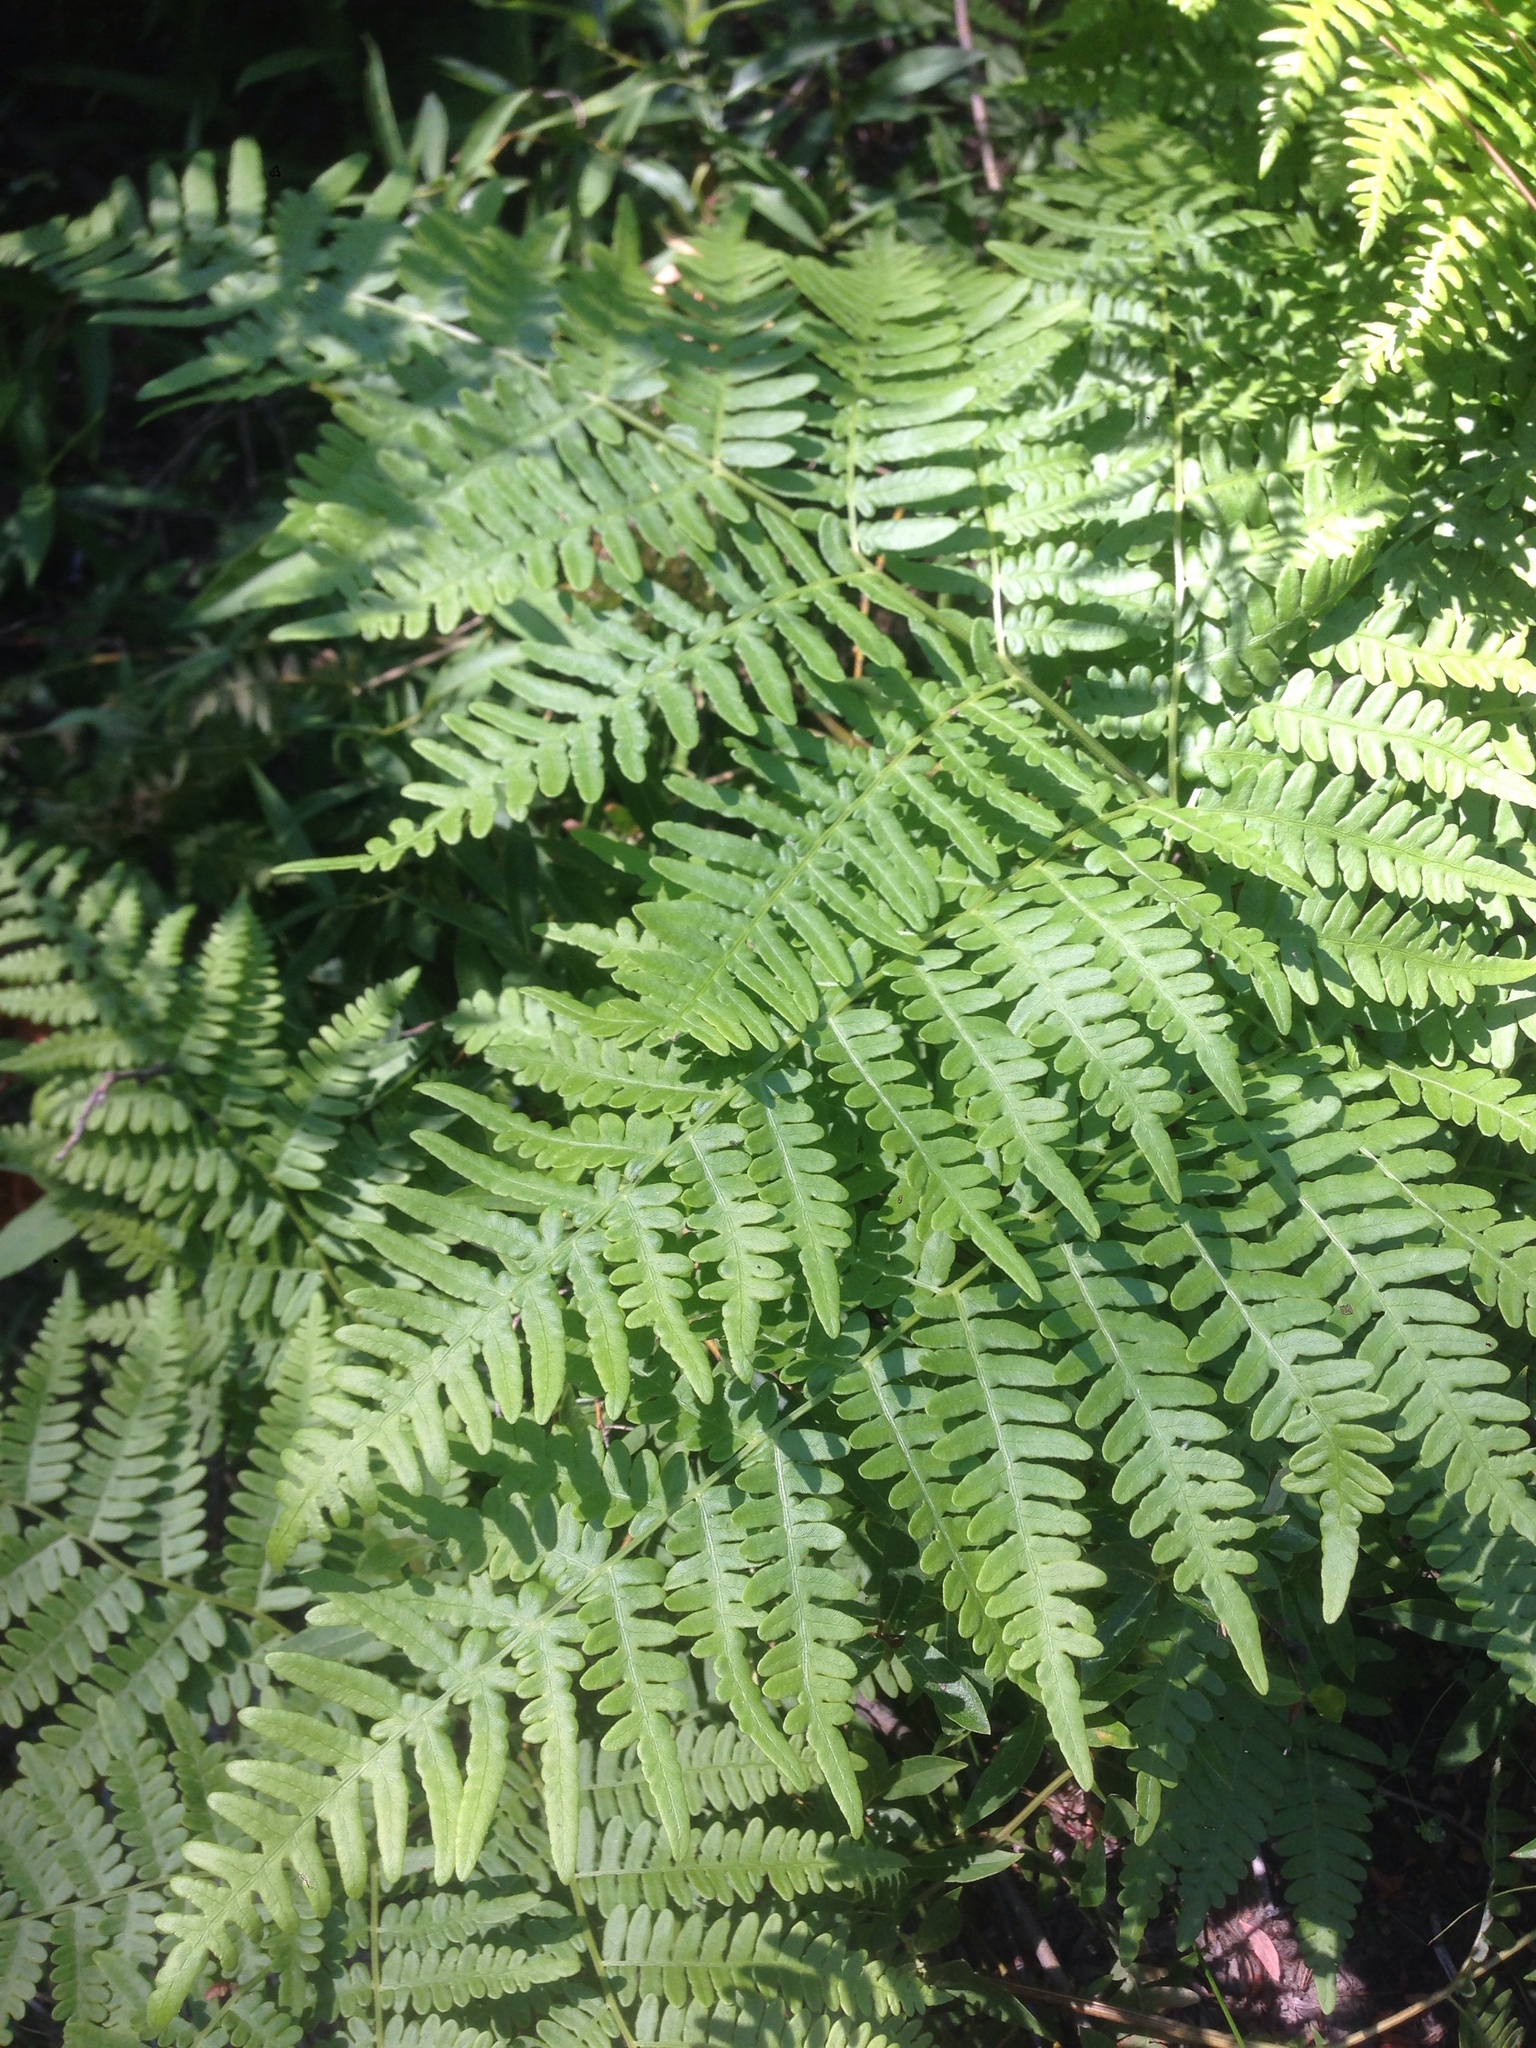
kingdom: Plantae
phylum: Tracheophyta
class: Polypodiopsida
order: Polypodiales
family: Dennstaedtiaceae
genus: Pteridium
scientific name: Pteridium aquilinum
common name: Bracken
